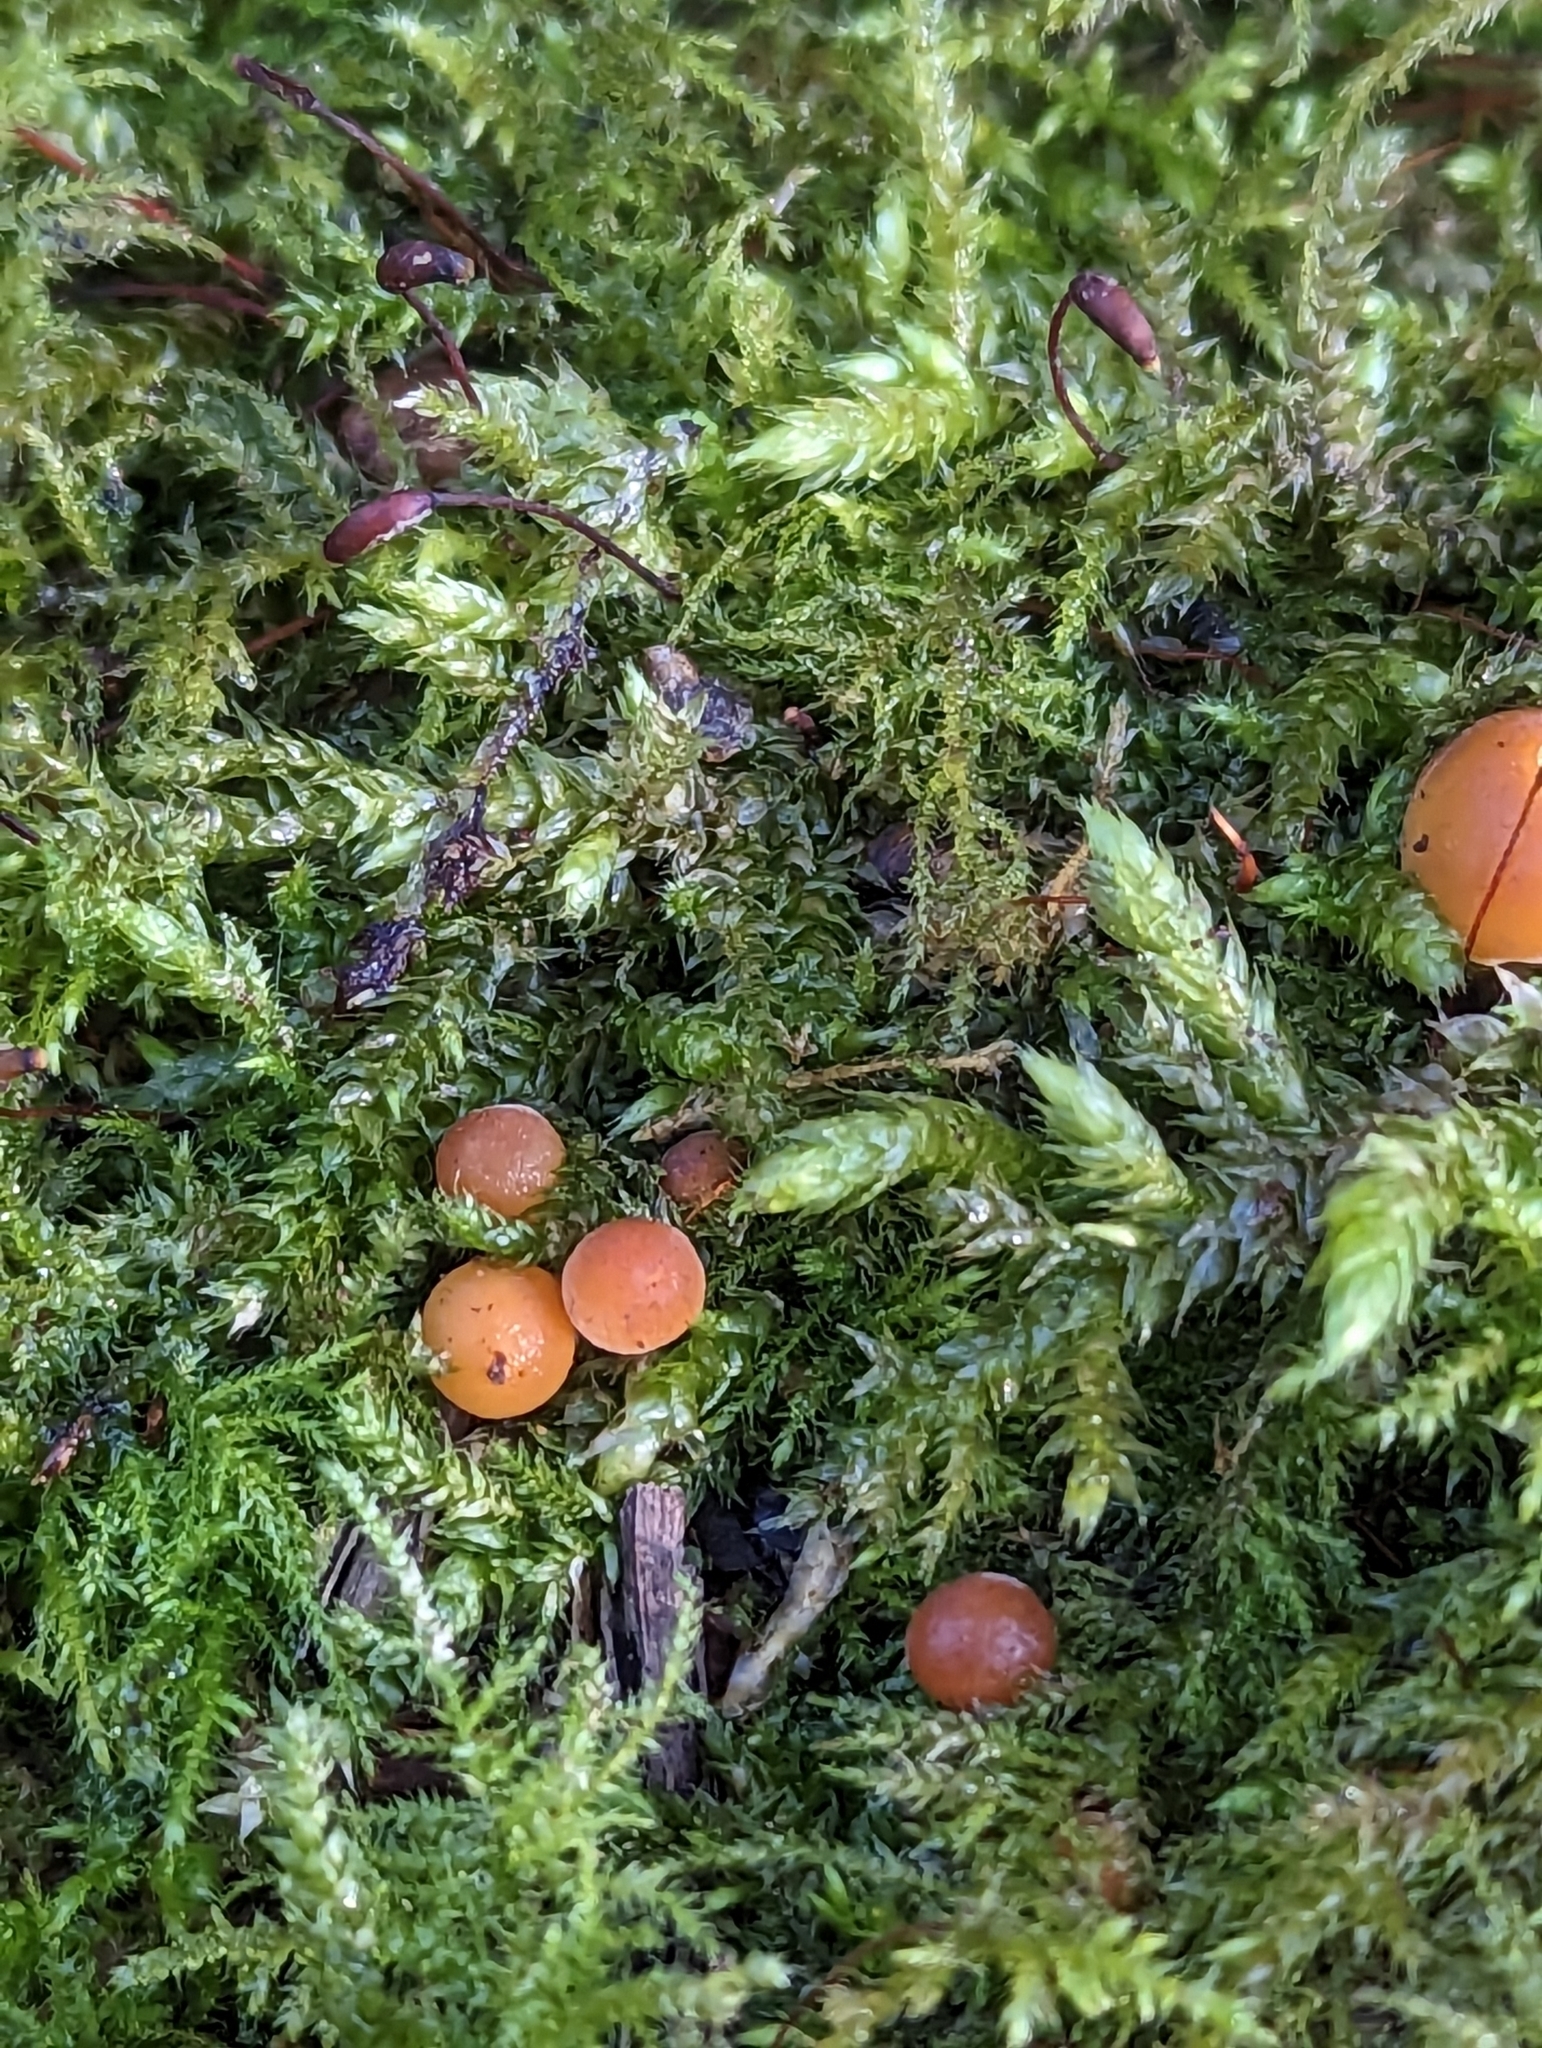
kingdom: Fungi
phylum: Basidiomycota
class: Agaricomycetes
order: Agaricales
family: Physalacriaceae
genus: Flammulina
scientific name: Flammulina
